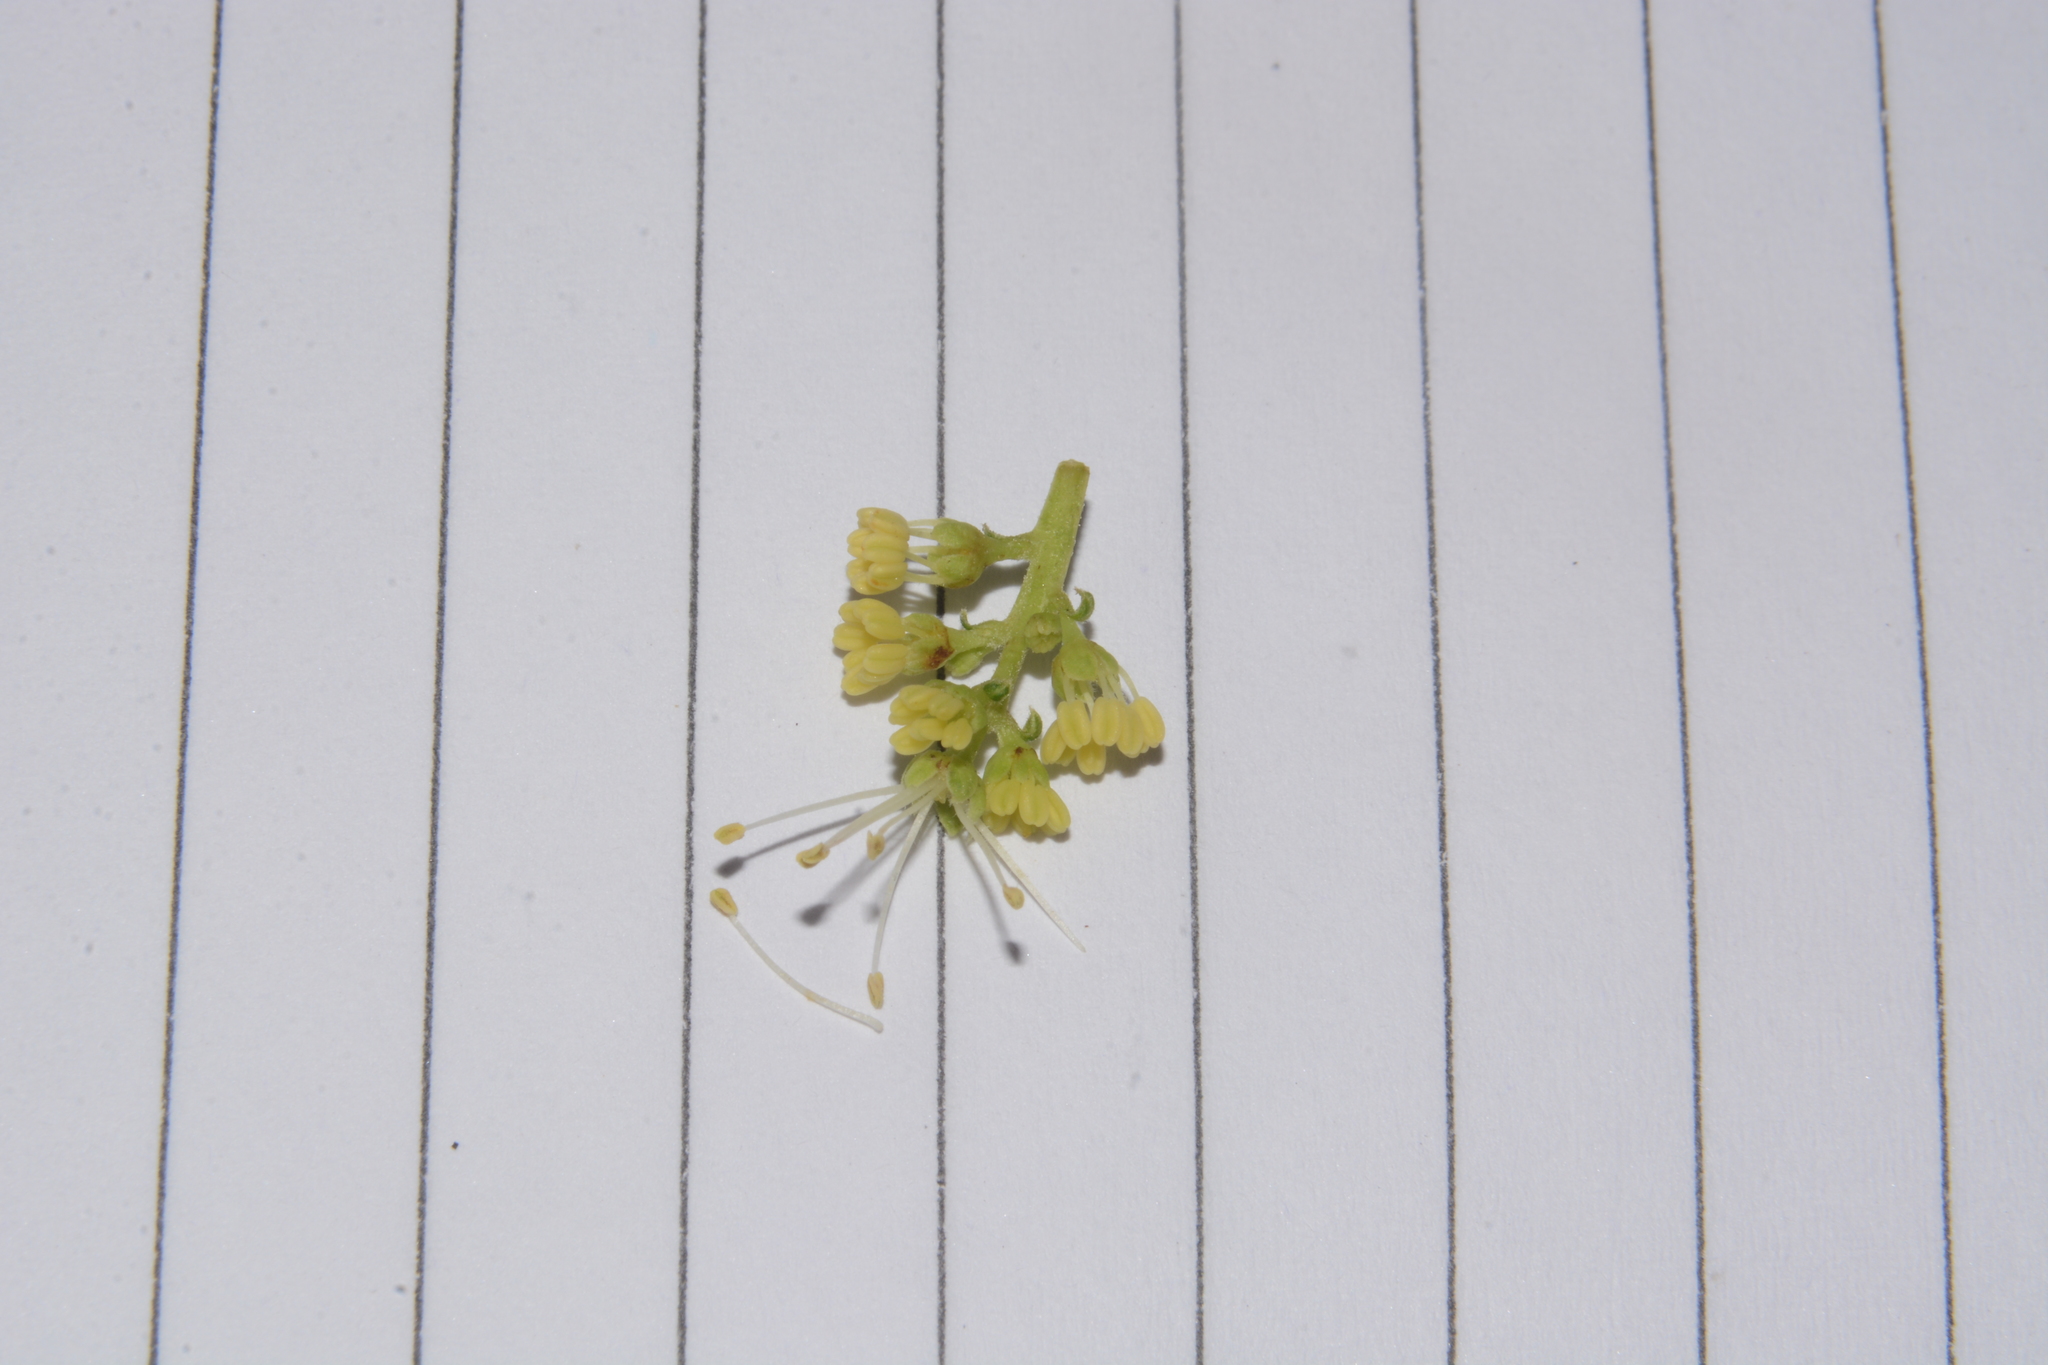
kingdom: Plantae
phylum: Tracheophyta
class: Magnoliopsida
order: Sapindales
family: Sapindaceae
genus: Schleichera
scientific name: Schleichera oleosa
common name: Malay lactree
